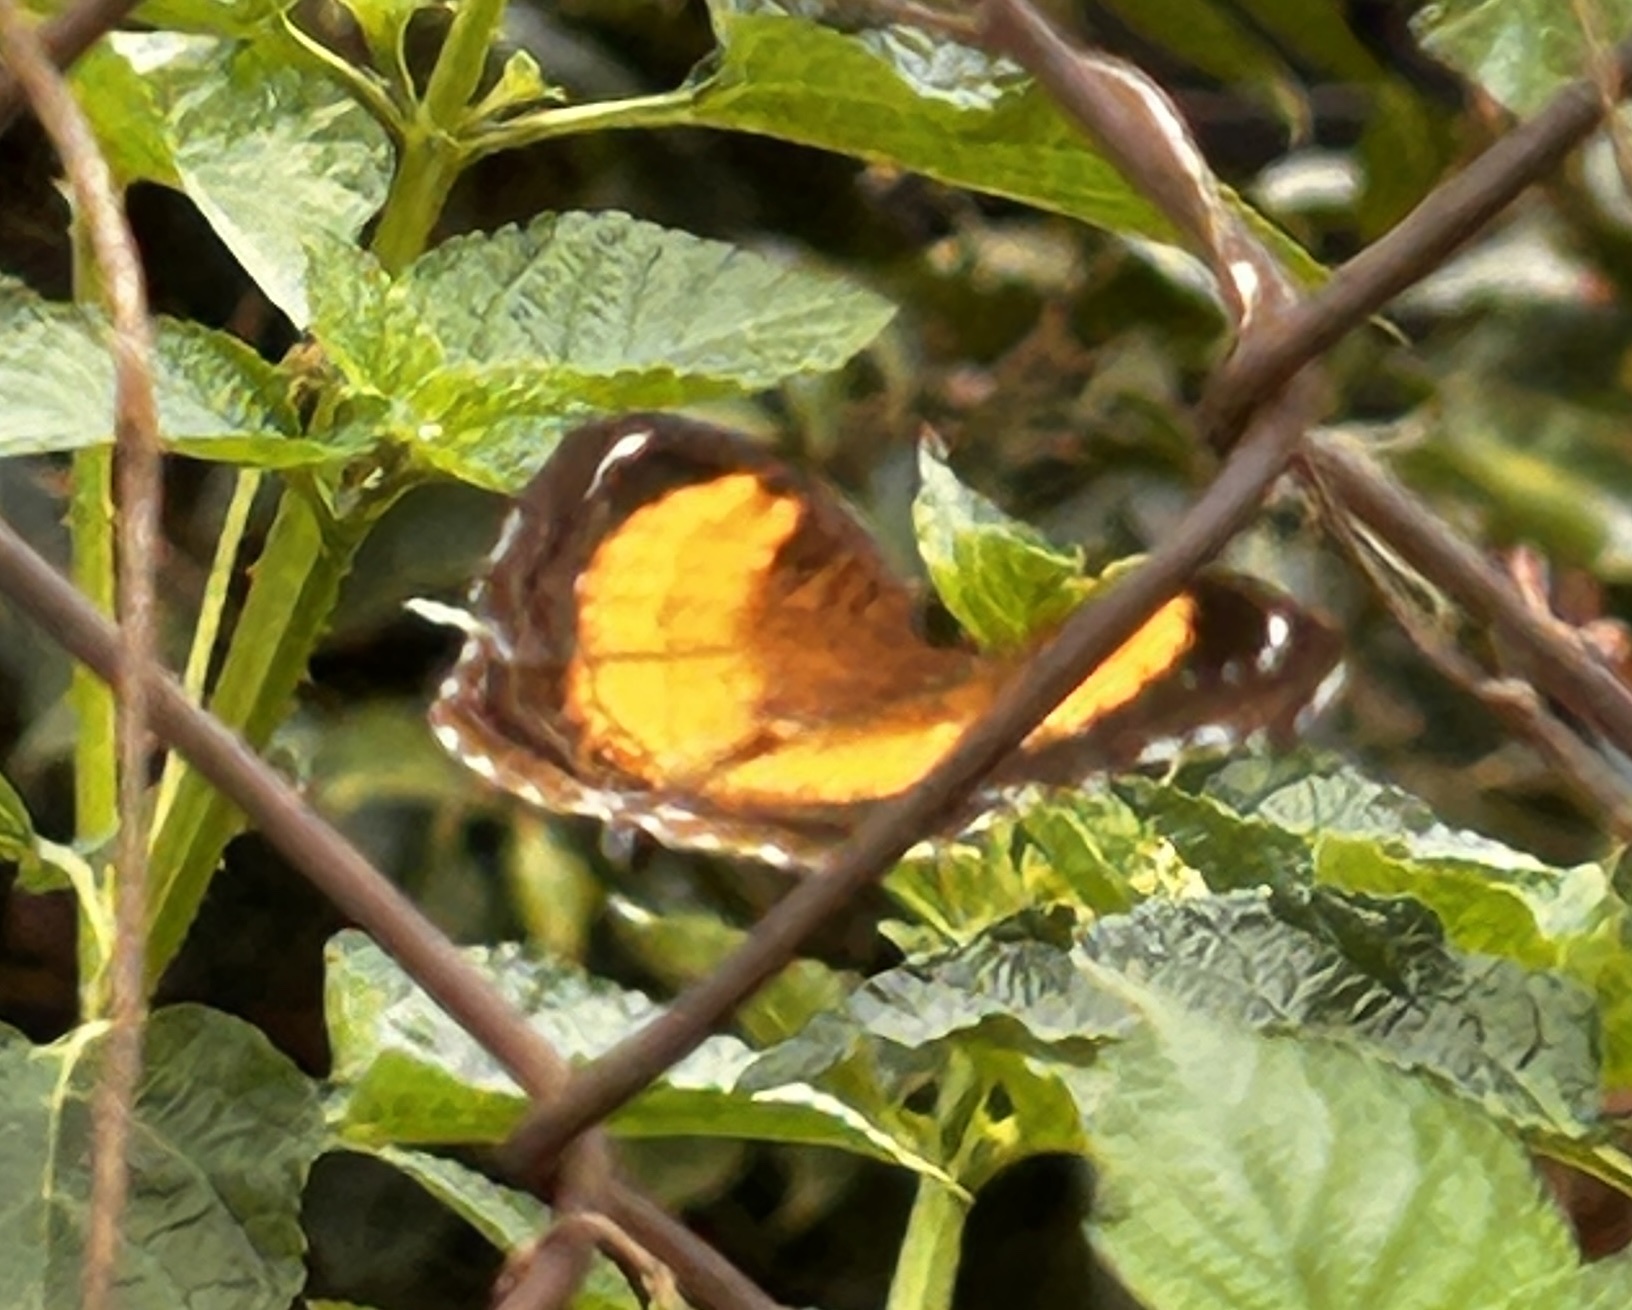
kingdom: Animalia
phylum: Arthropoda
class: Insecta
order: Lepidoptera
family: Nymphalidae
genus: Junonia
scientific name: Junonia terea
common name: Soldier pansy
